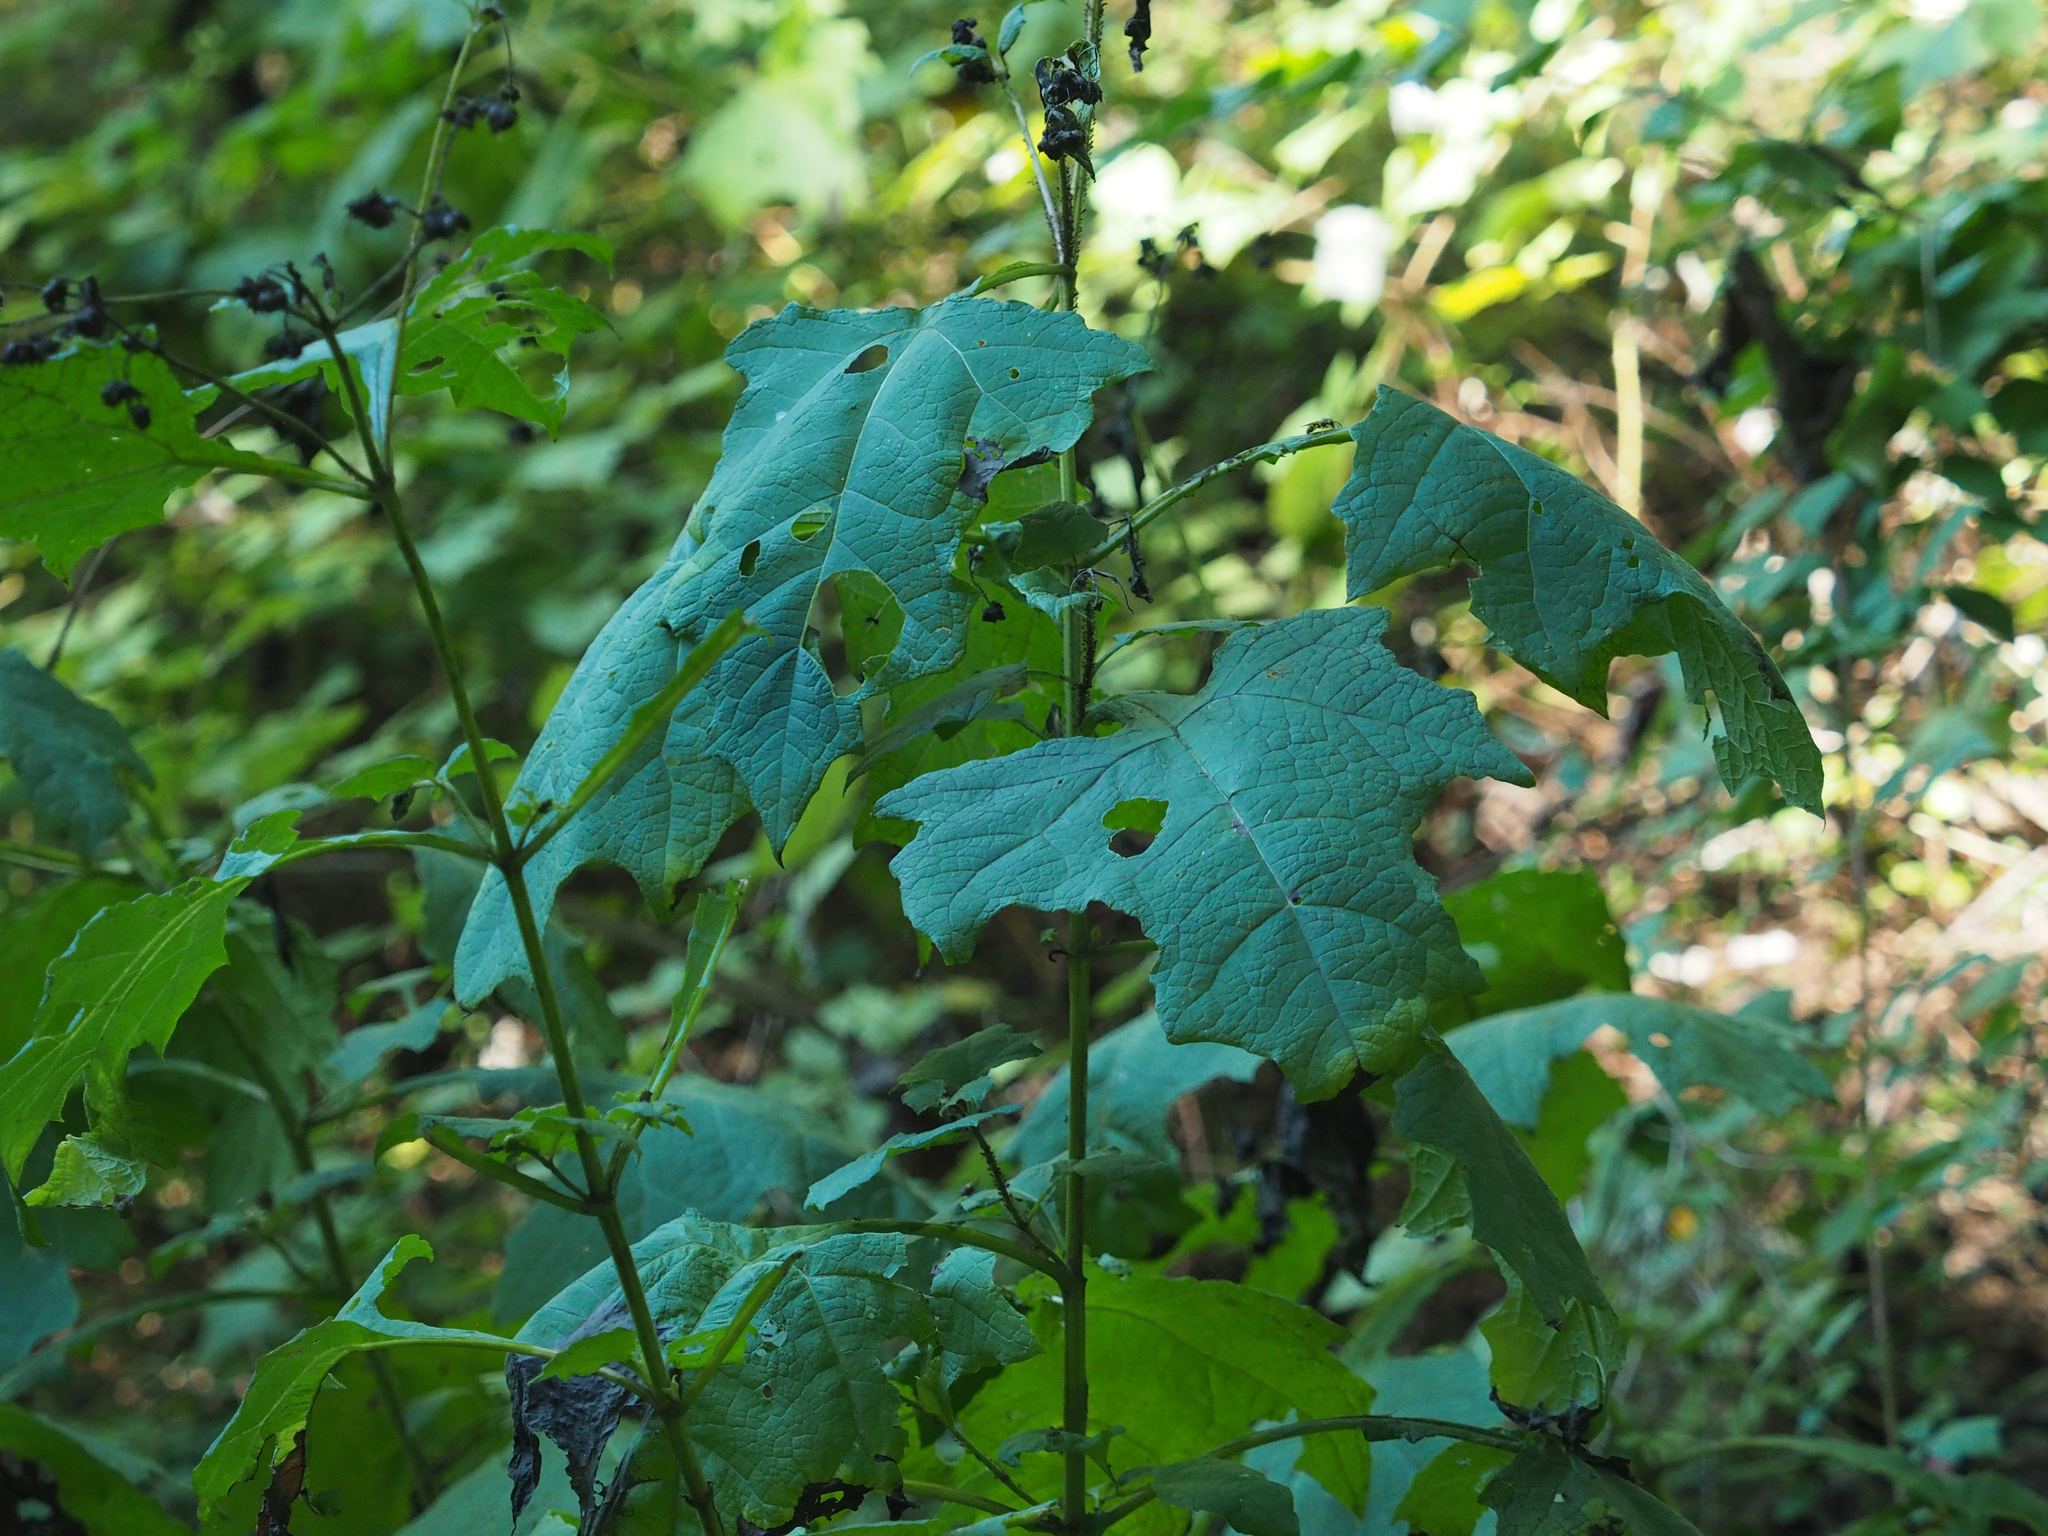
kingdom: Plantae
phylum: Tracheophyta
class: Magnoliopsida
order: Asterales
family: Asteraceae
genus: Smallanthus
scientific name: Smallanthus uvedalia
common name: Bear's-foot
